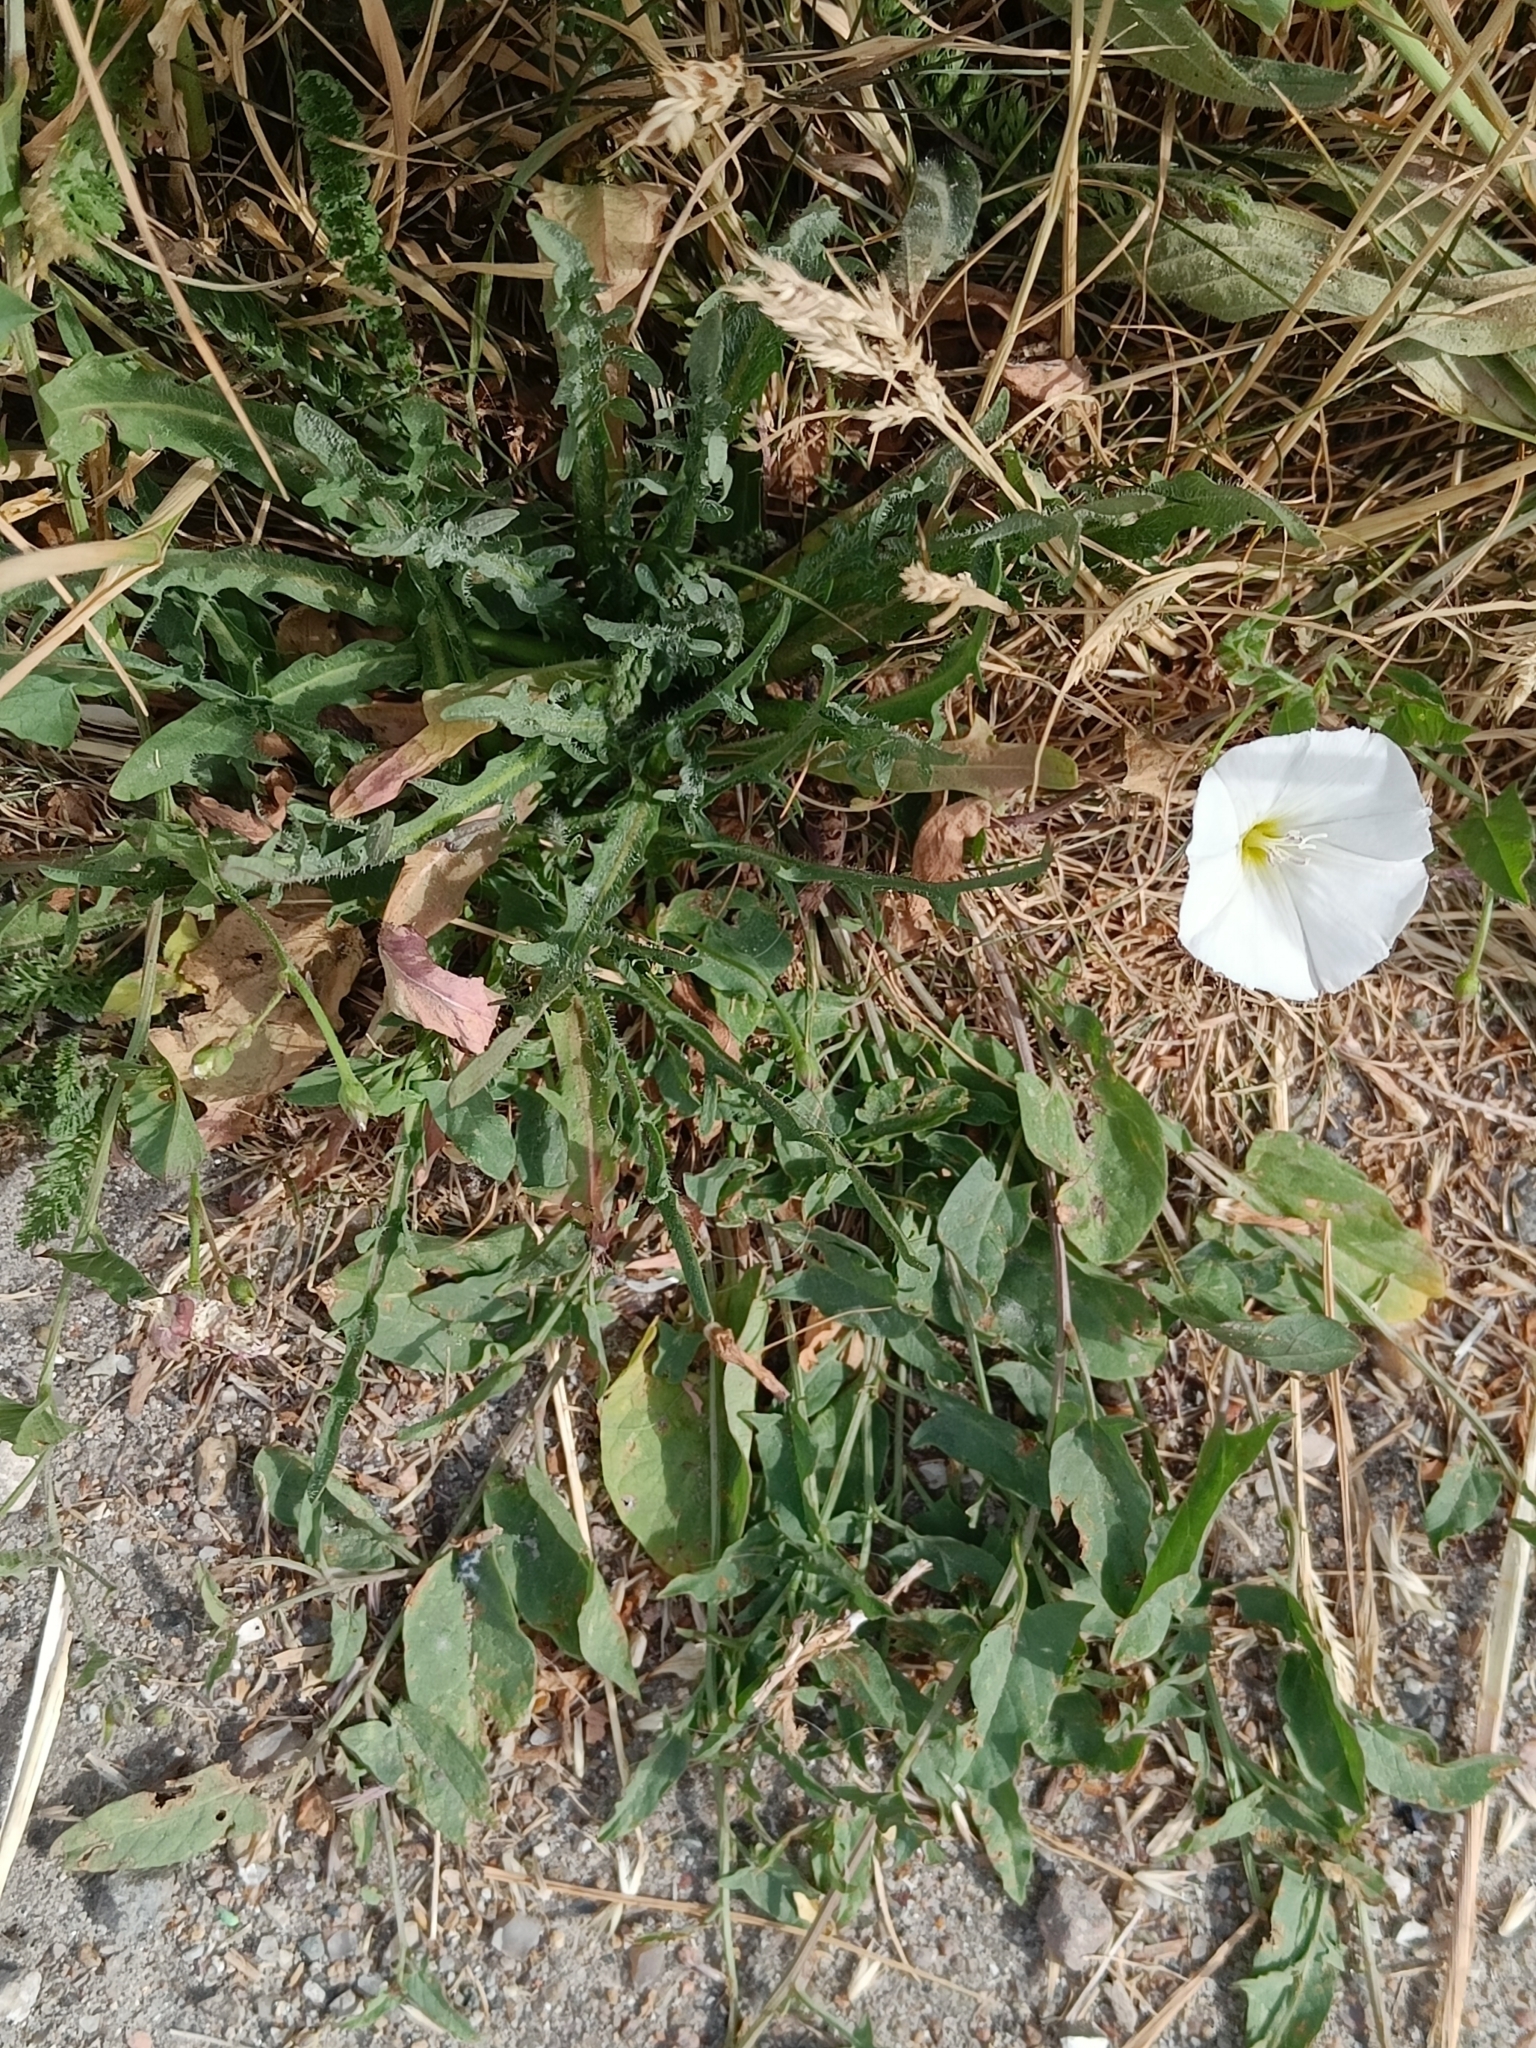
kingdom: Plantae
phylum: Tracheophyta
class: Magnoliopsida
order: Solanales
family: Convolvulaceae
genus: Convolvulus
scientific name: Convolvulus arvensis
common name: Field bindweed
